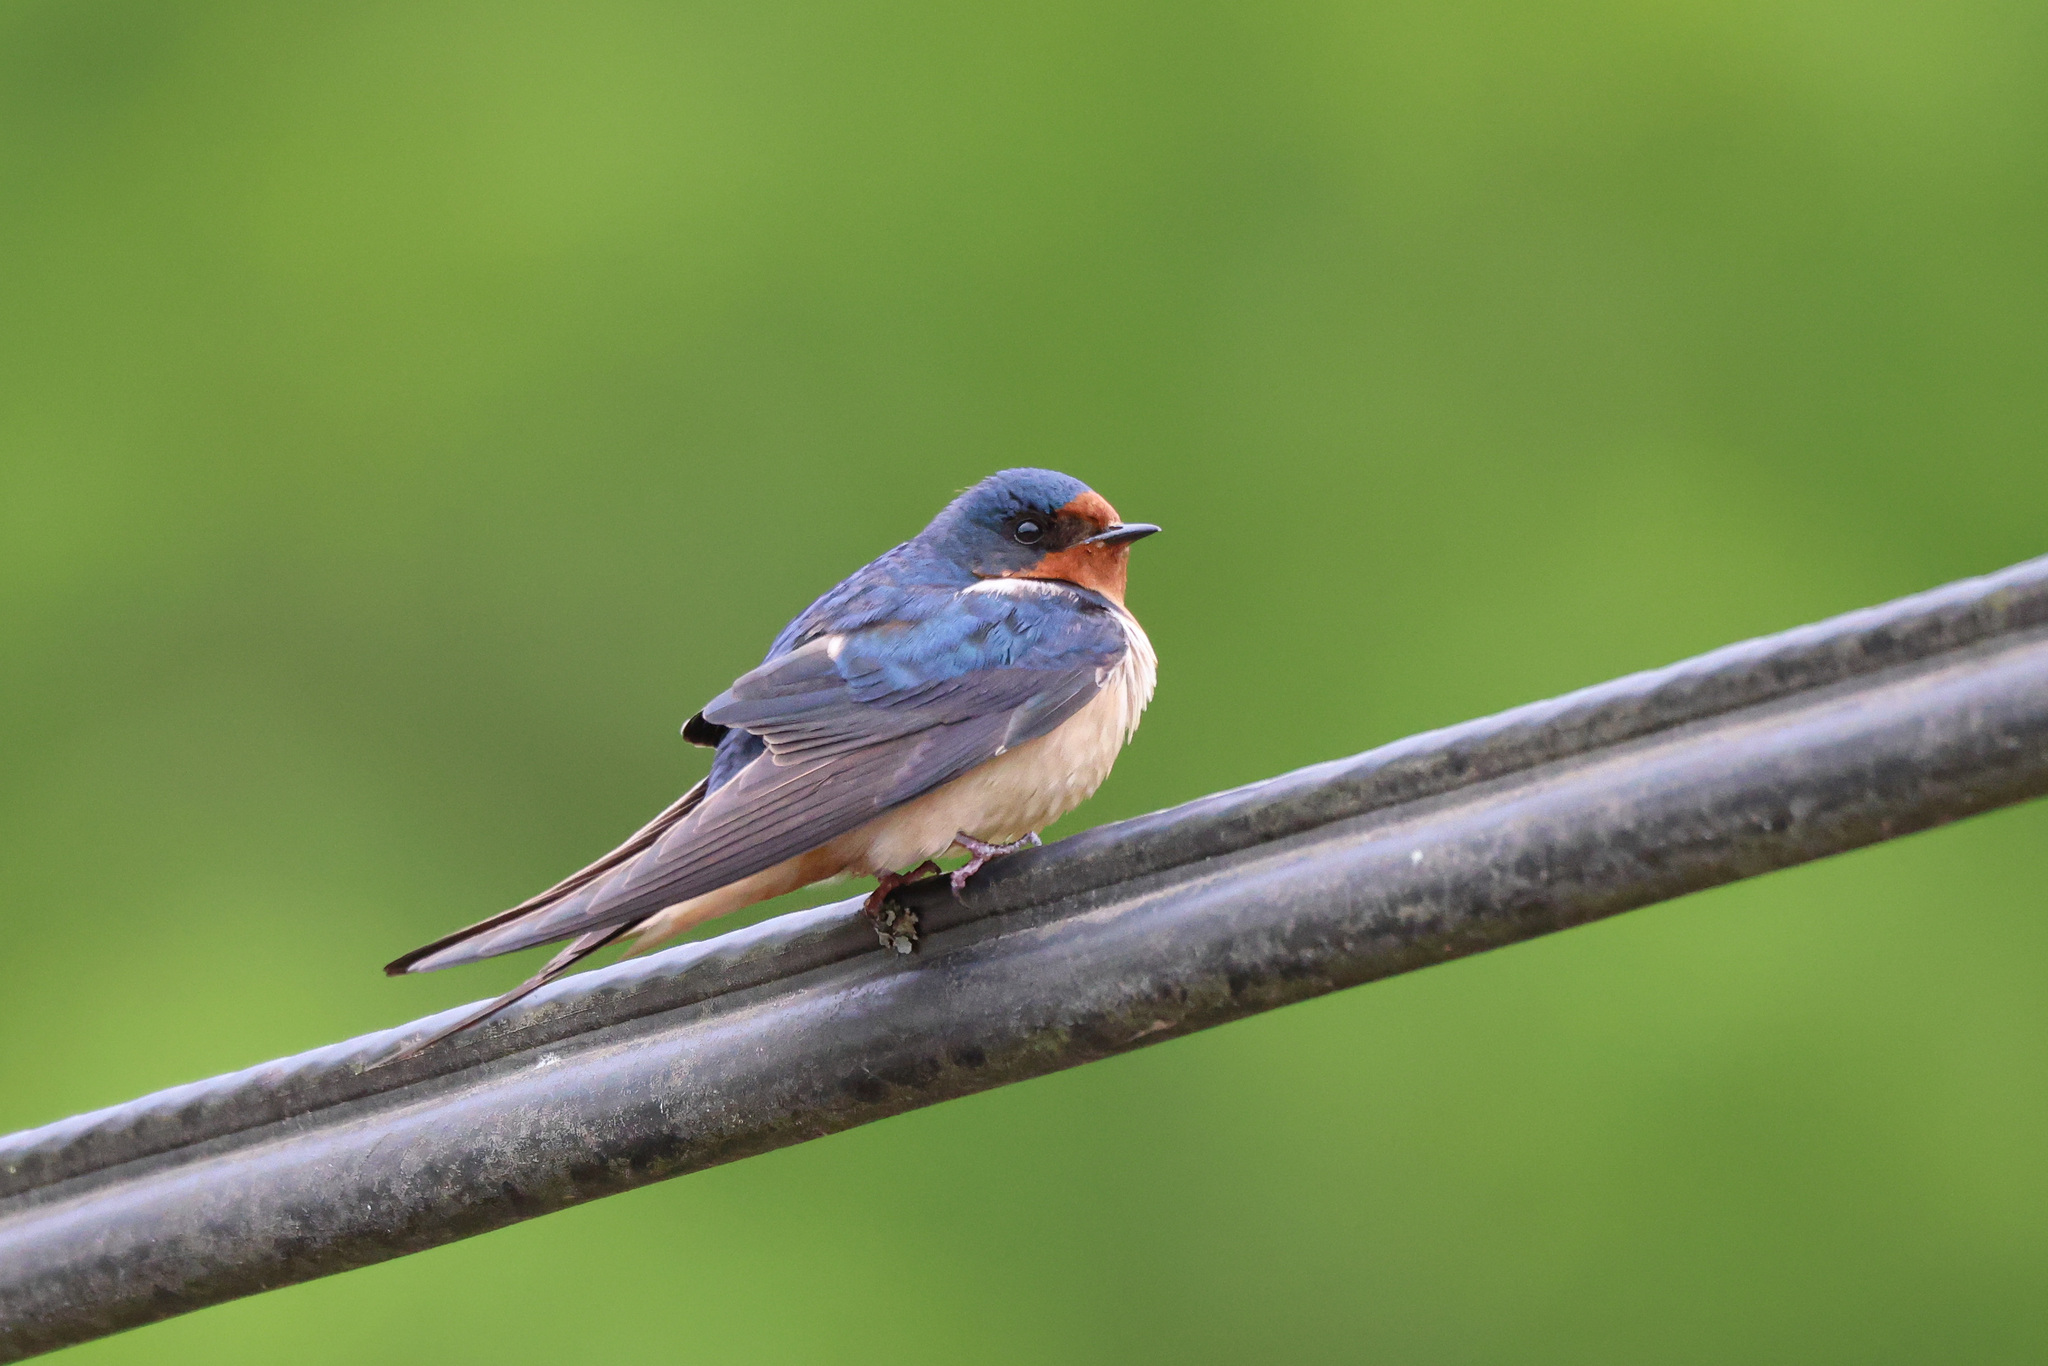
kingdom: Animalia
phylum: Chordata
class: Aves
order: Passeriformes
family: Hirundinidae
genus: Hirundo
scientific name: Hirundo rustica
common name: Barn swallow
